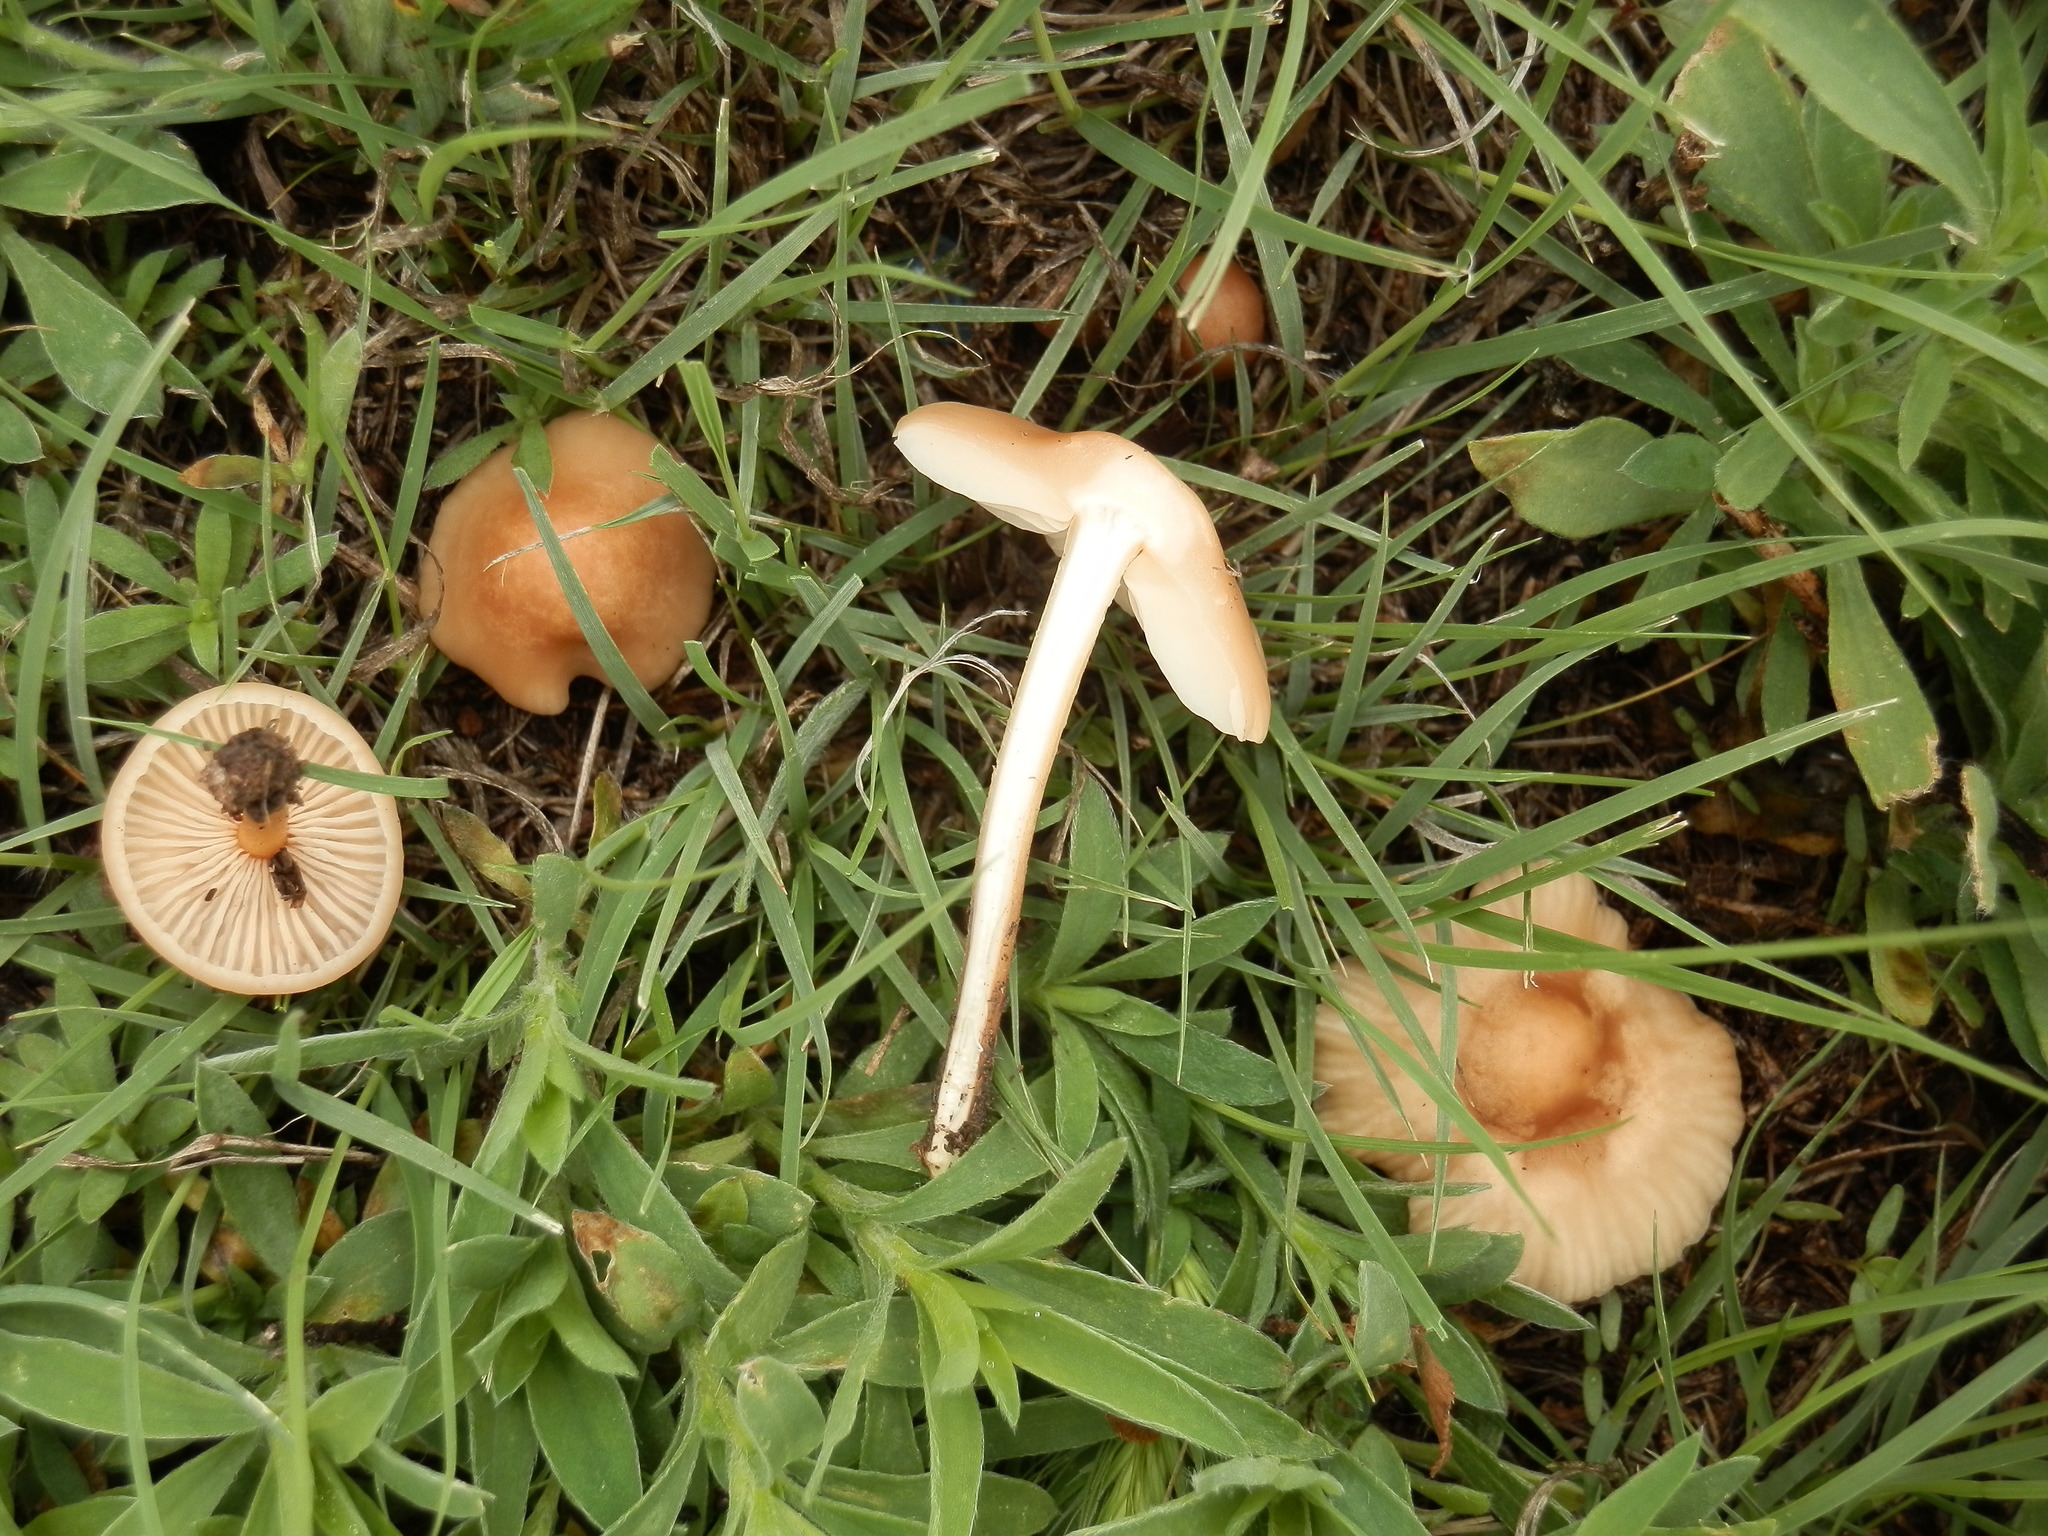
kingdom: Fungi
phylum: Basidiomycota
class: Agaricomycetes
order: Agaricales
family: Marasmiaceae
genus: Marasmius
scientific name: Marasmius oreades
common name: Fairy ring champignon
